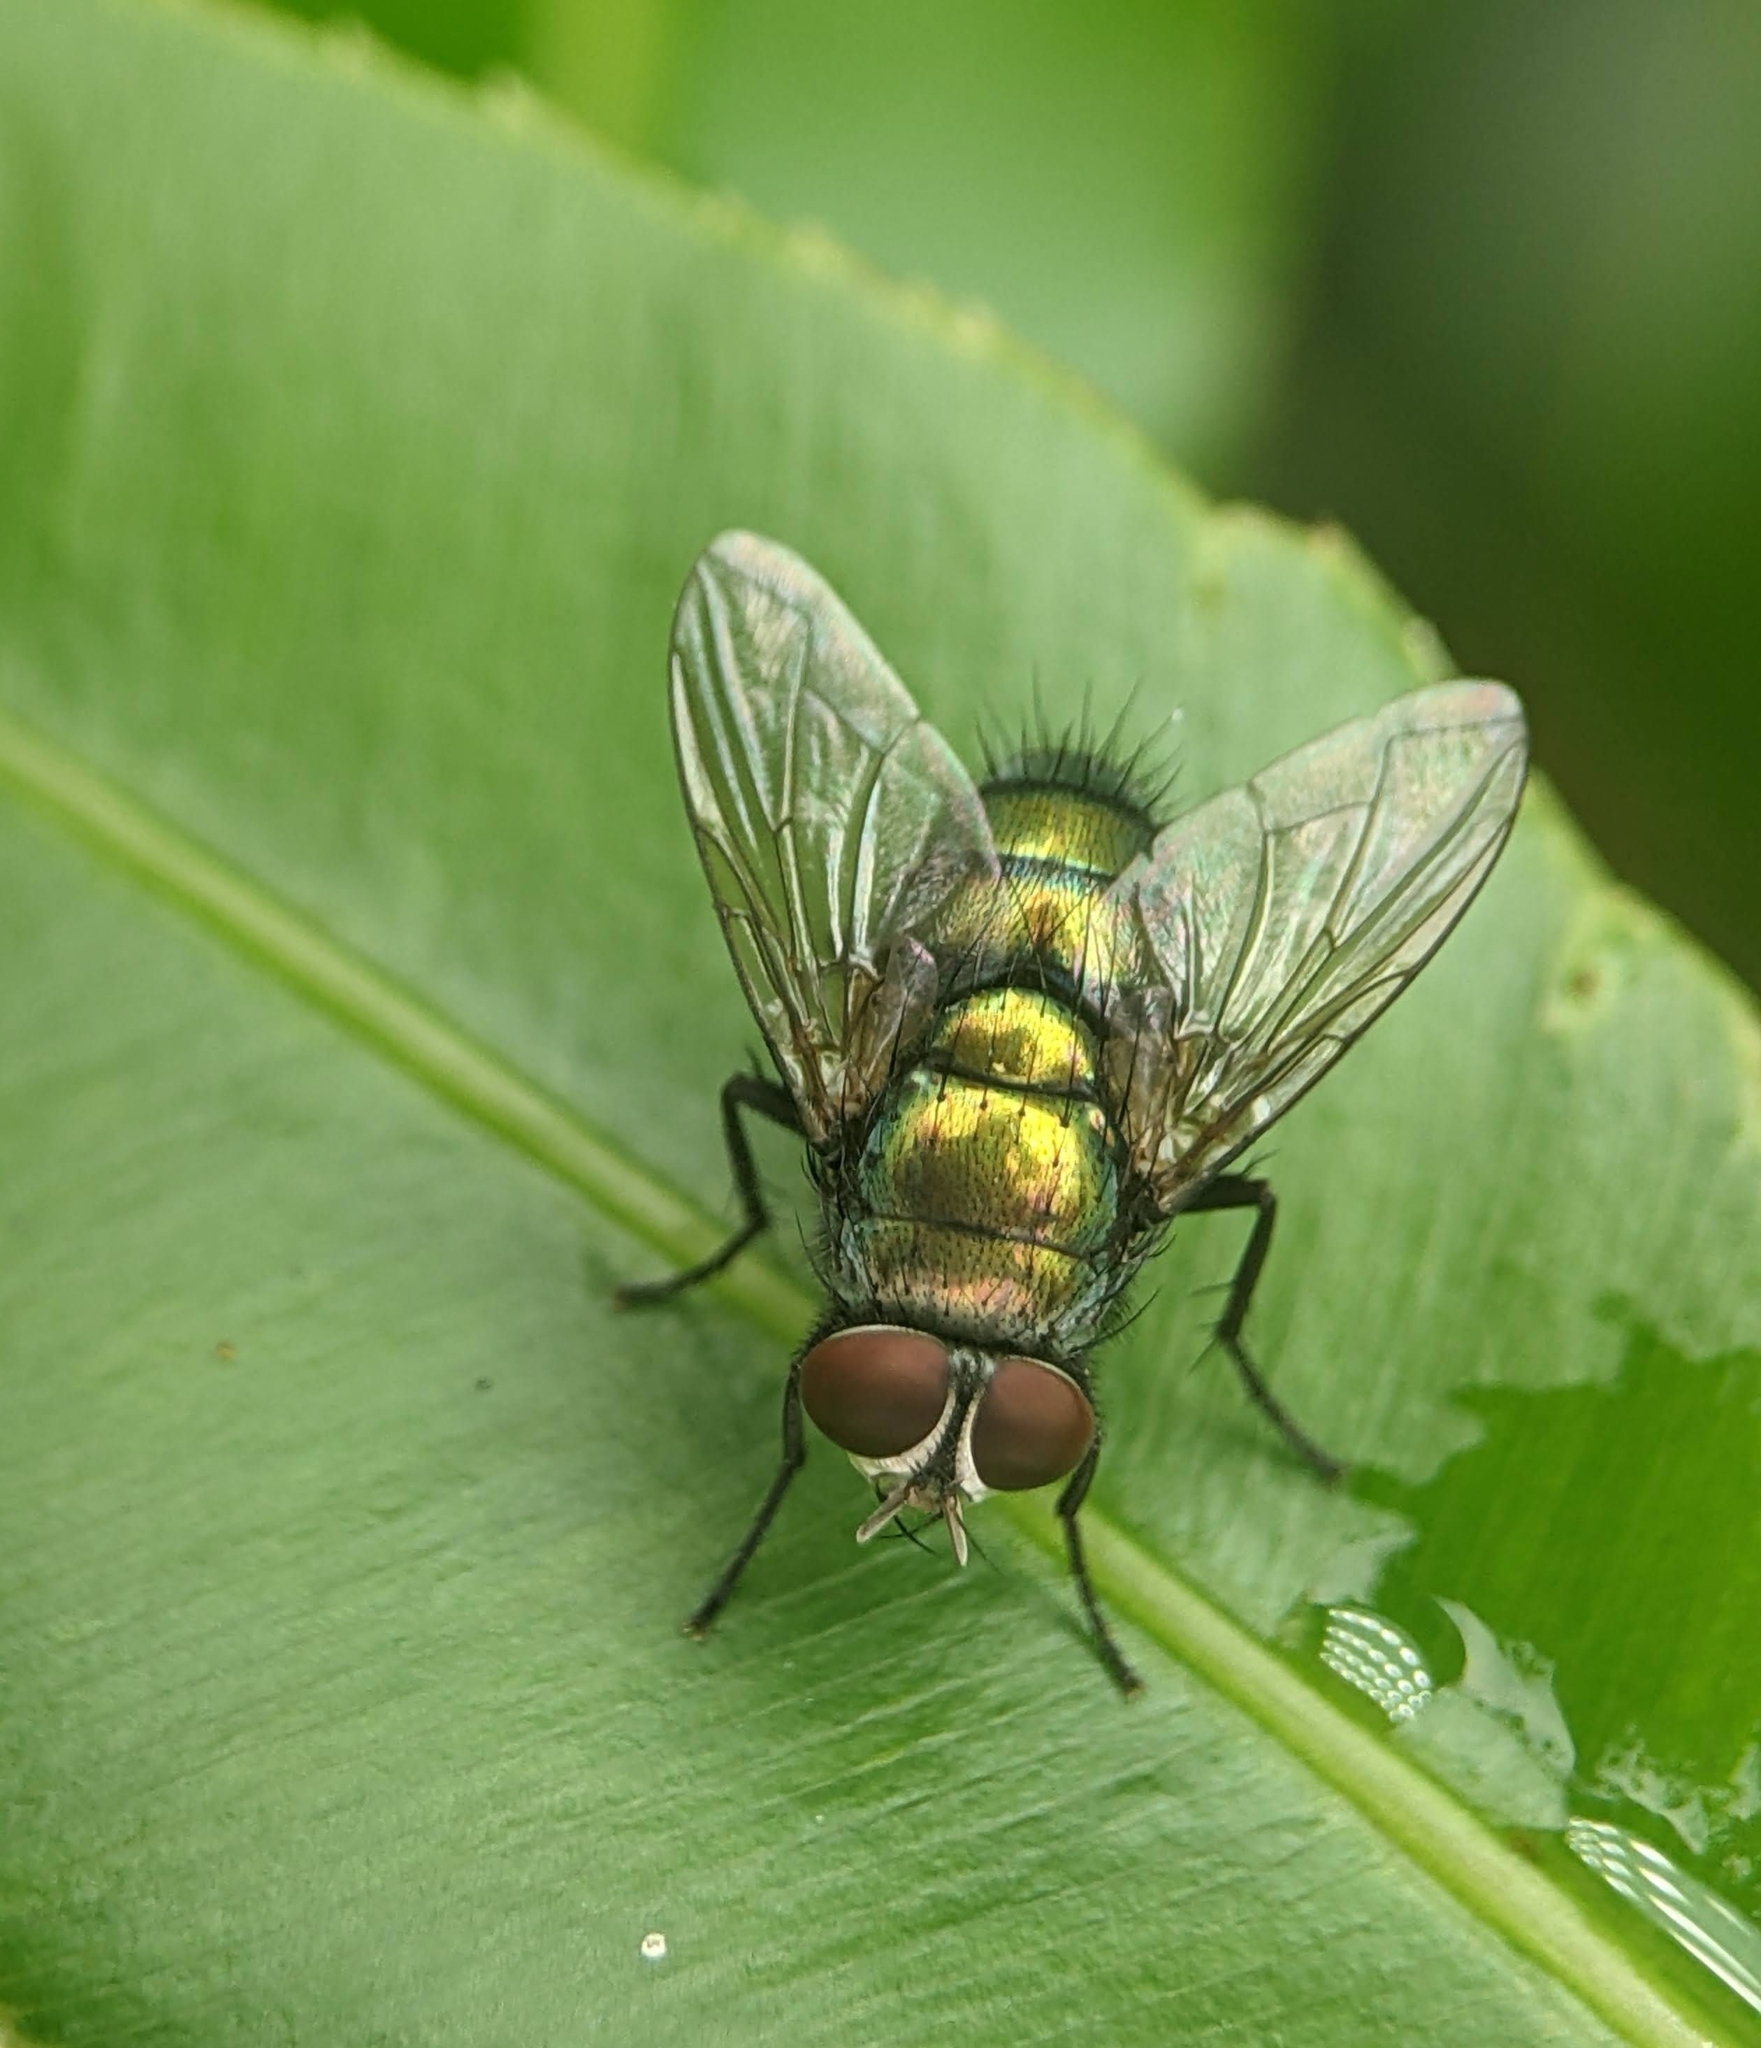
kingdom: Animalia
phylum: Arthropoda
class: Insecta
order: Diptera
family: Calliphoridae
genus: Hemipyrellia
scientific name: Hemipyrellia ligurriens
